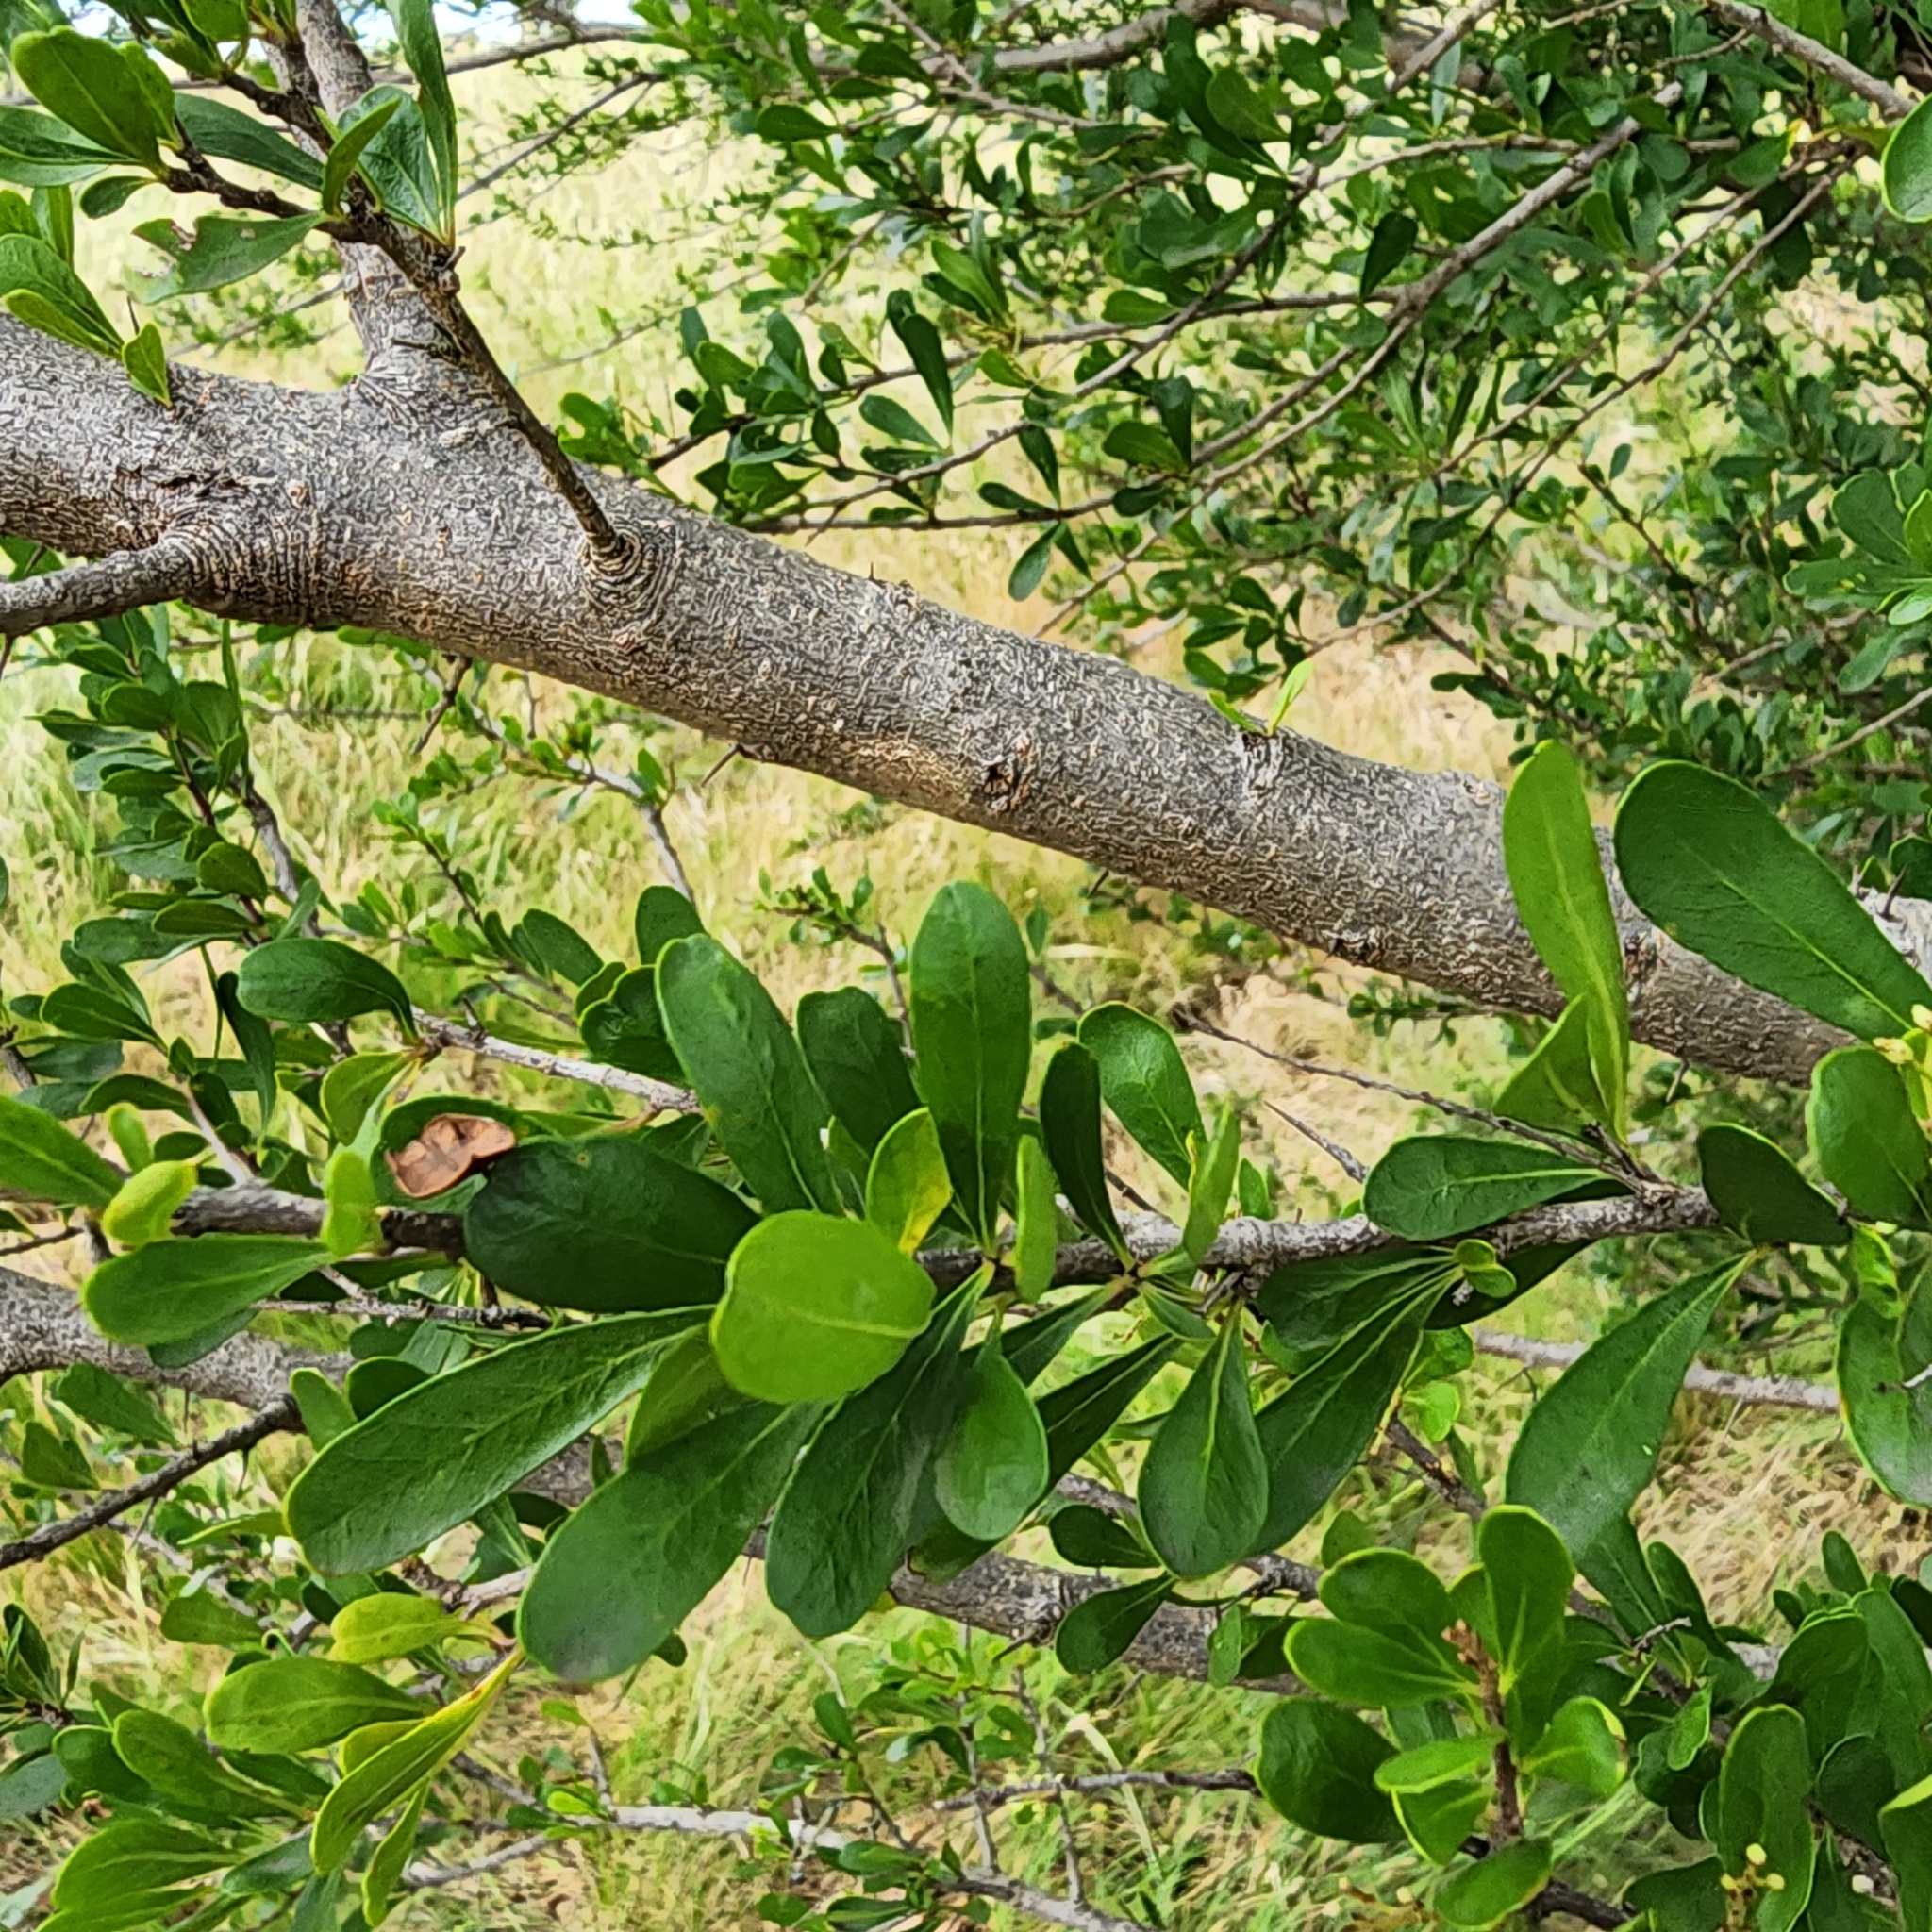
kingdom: Plantae
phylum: Tracheophyta
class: Magnoliopsida
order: Apiales
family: Pittosporaceae
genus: Bursaria
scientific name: Bursaria spinosa
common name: Australian blackthorn
